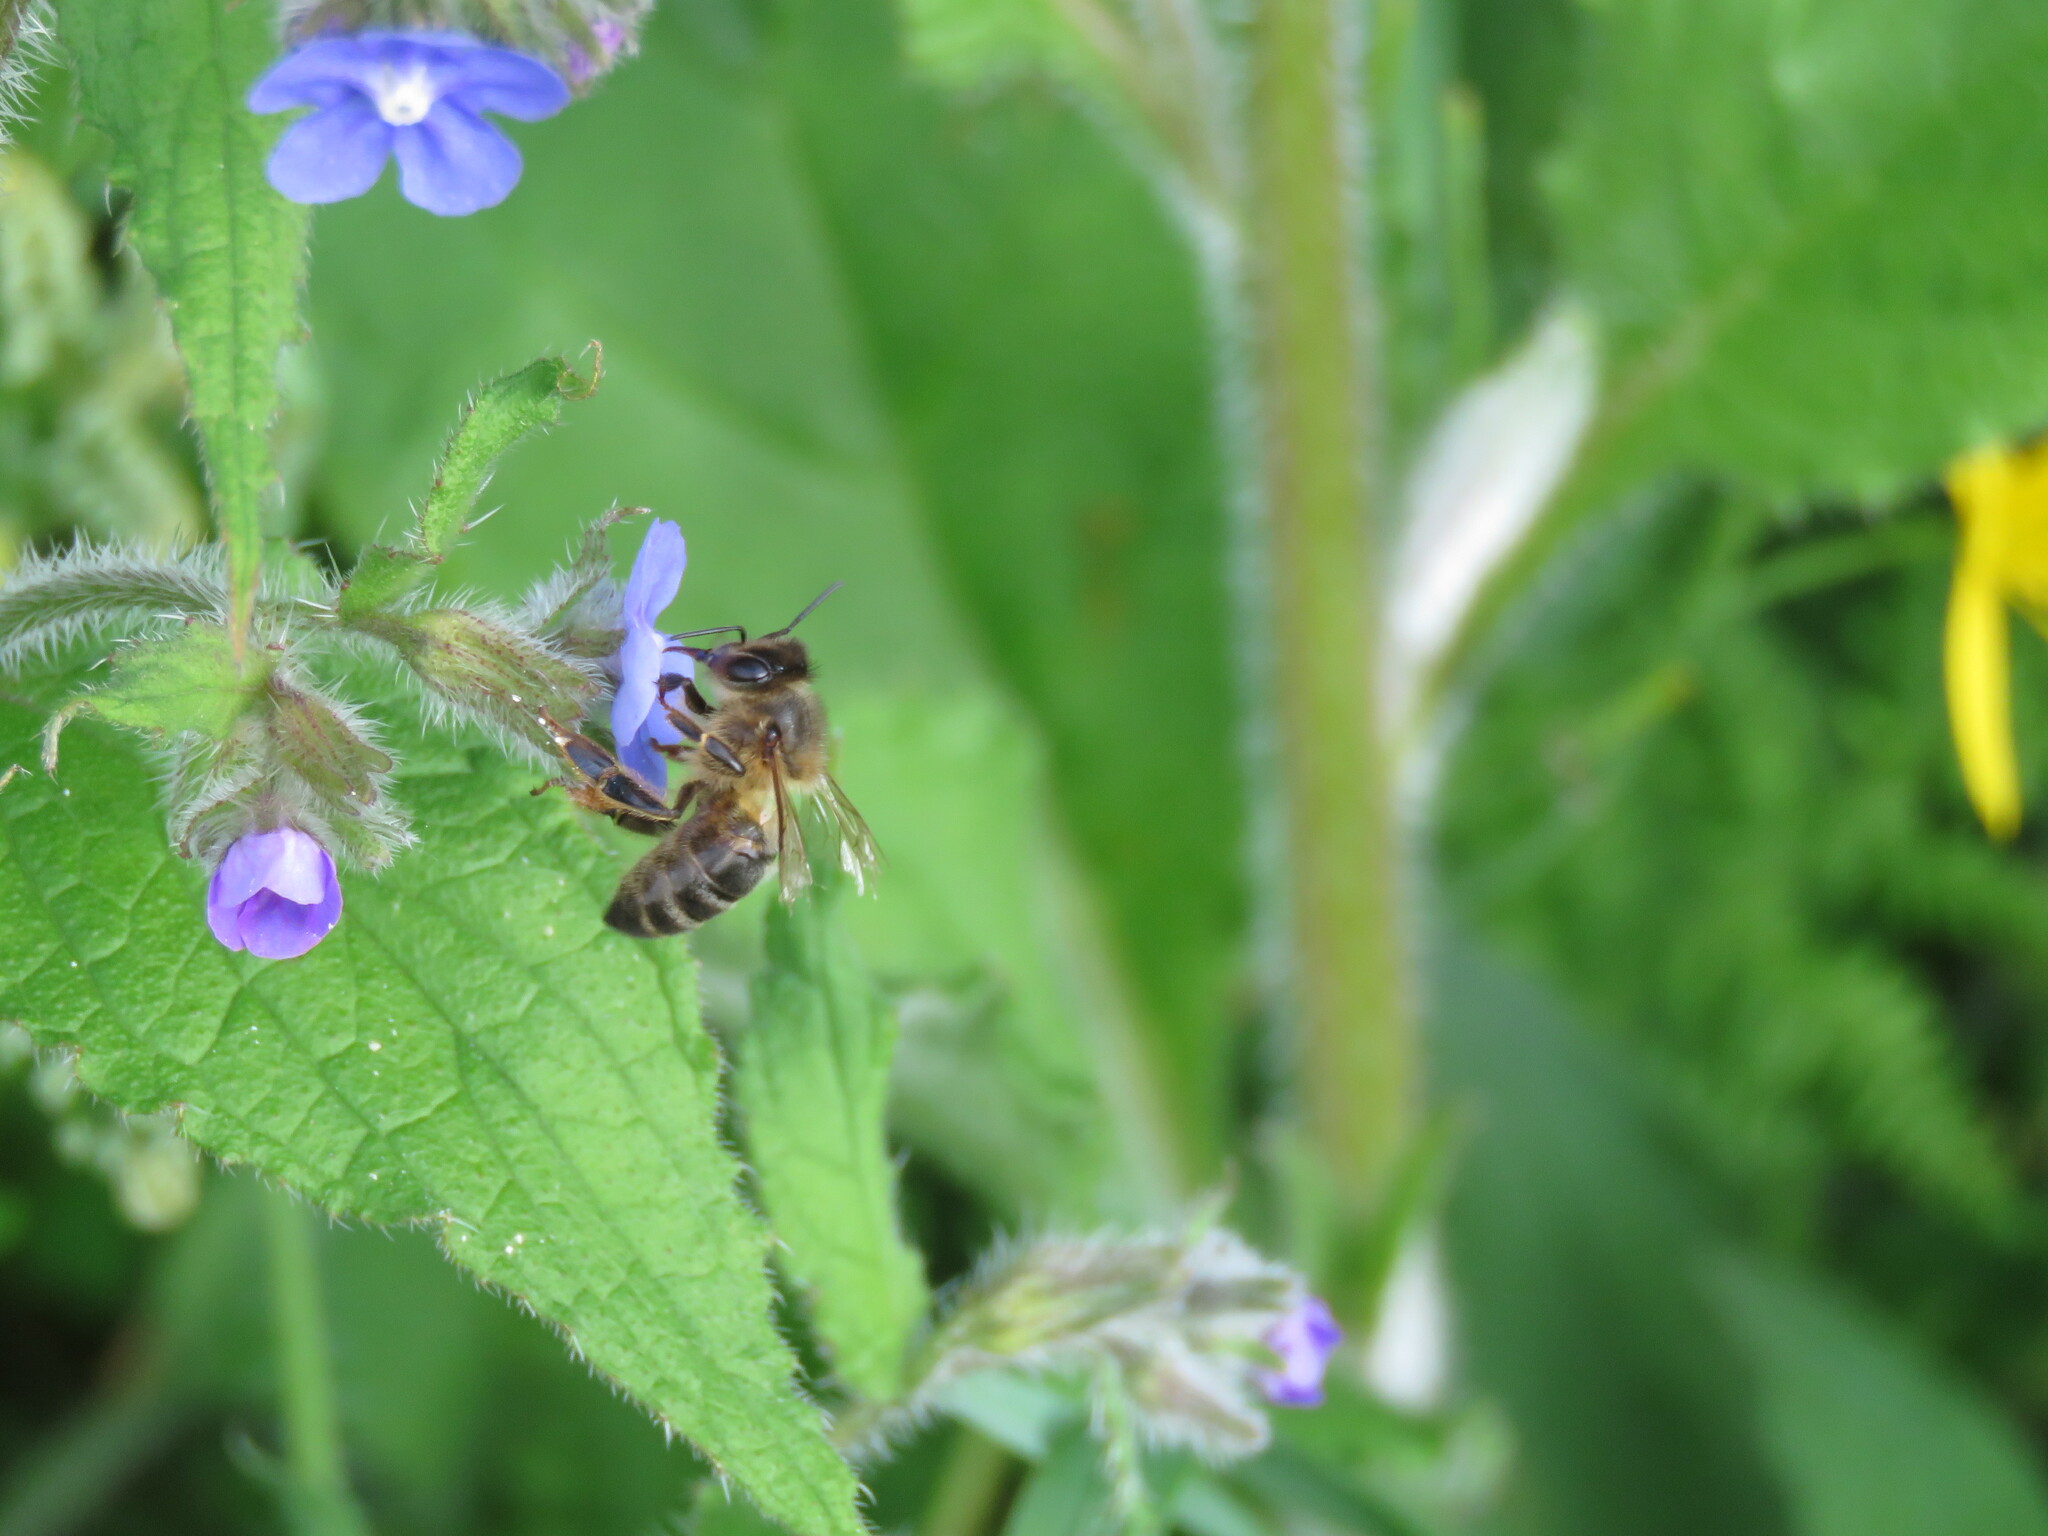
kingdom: Animalia
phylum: Arthropoda
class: Insecta
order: Hymenoptera
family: Apidae
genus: Apis
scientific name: Apis mellifera
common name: Honey bee
